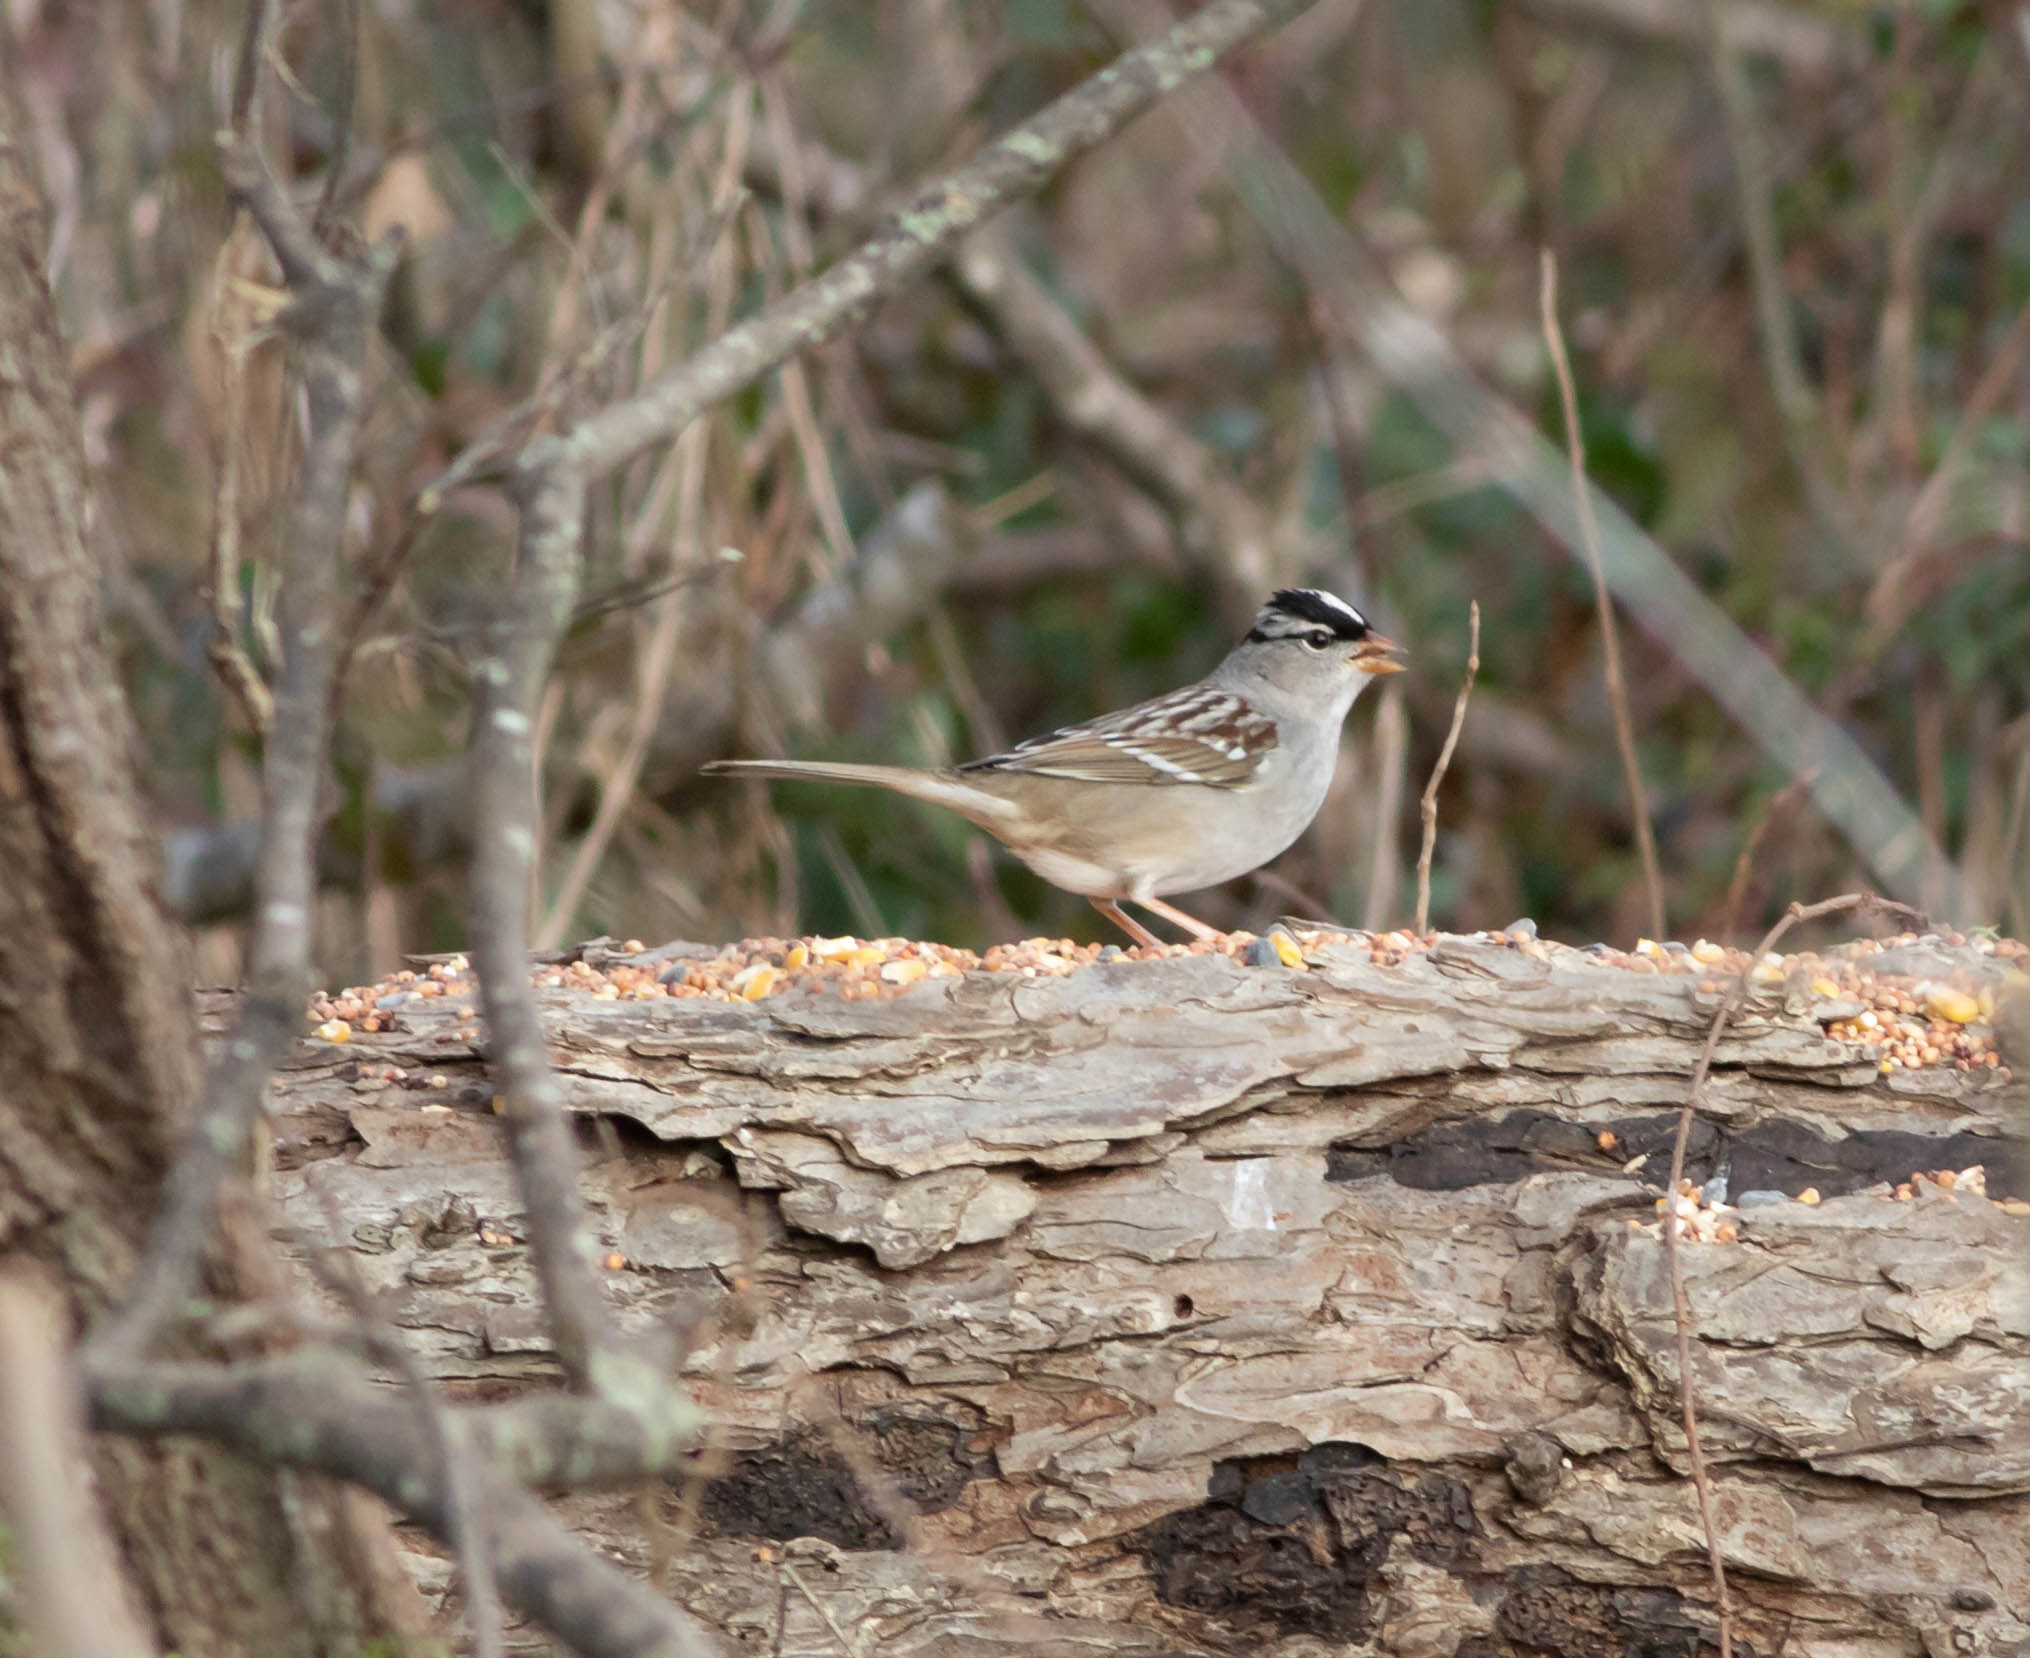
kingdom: Animalia
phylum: Chordata
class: Aves
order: Passeriformes
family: Passerellidae
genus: Zonotrichia
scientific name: Zonotrichia leucophrys
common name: White-crowned sparrow
